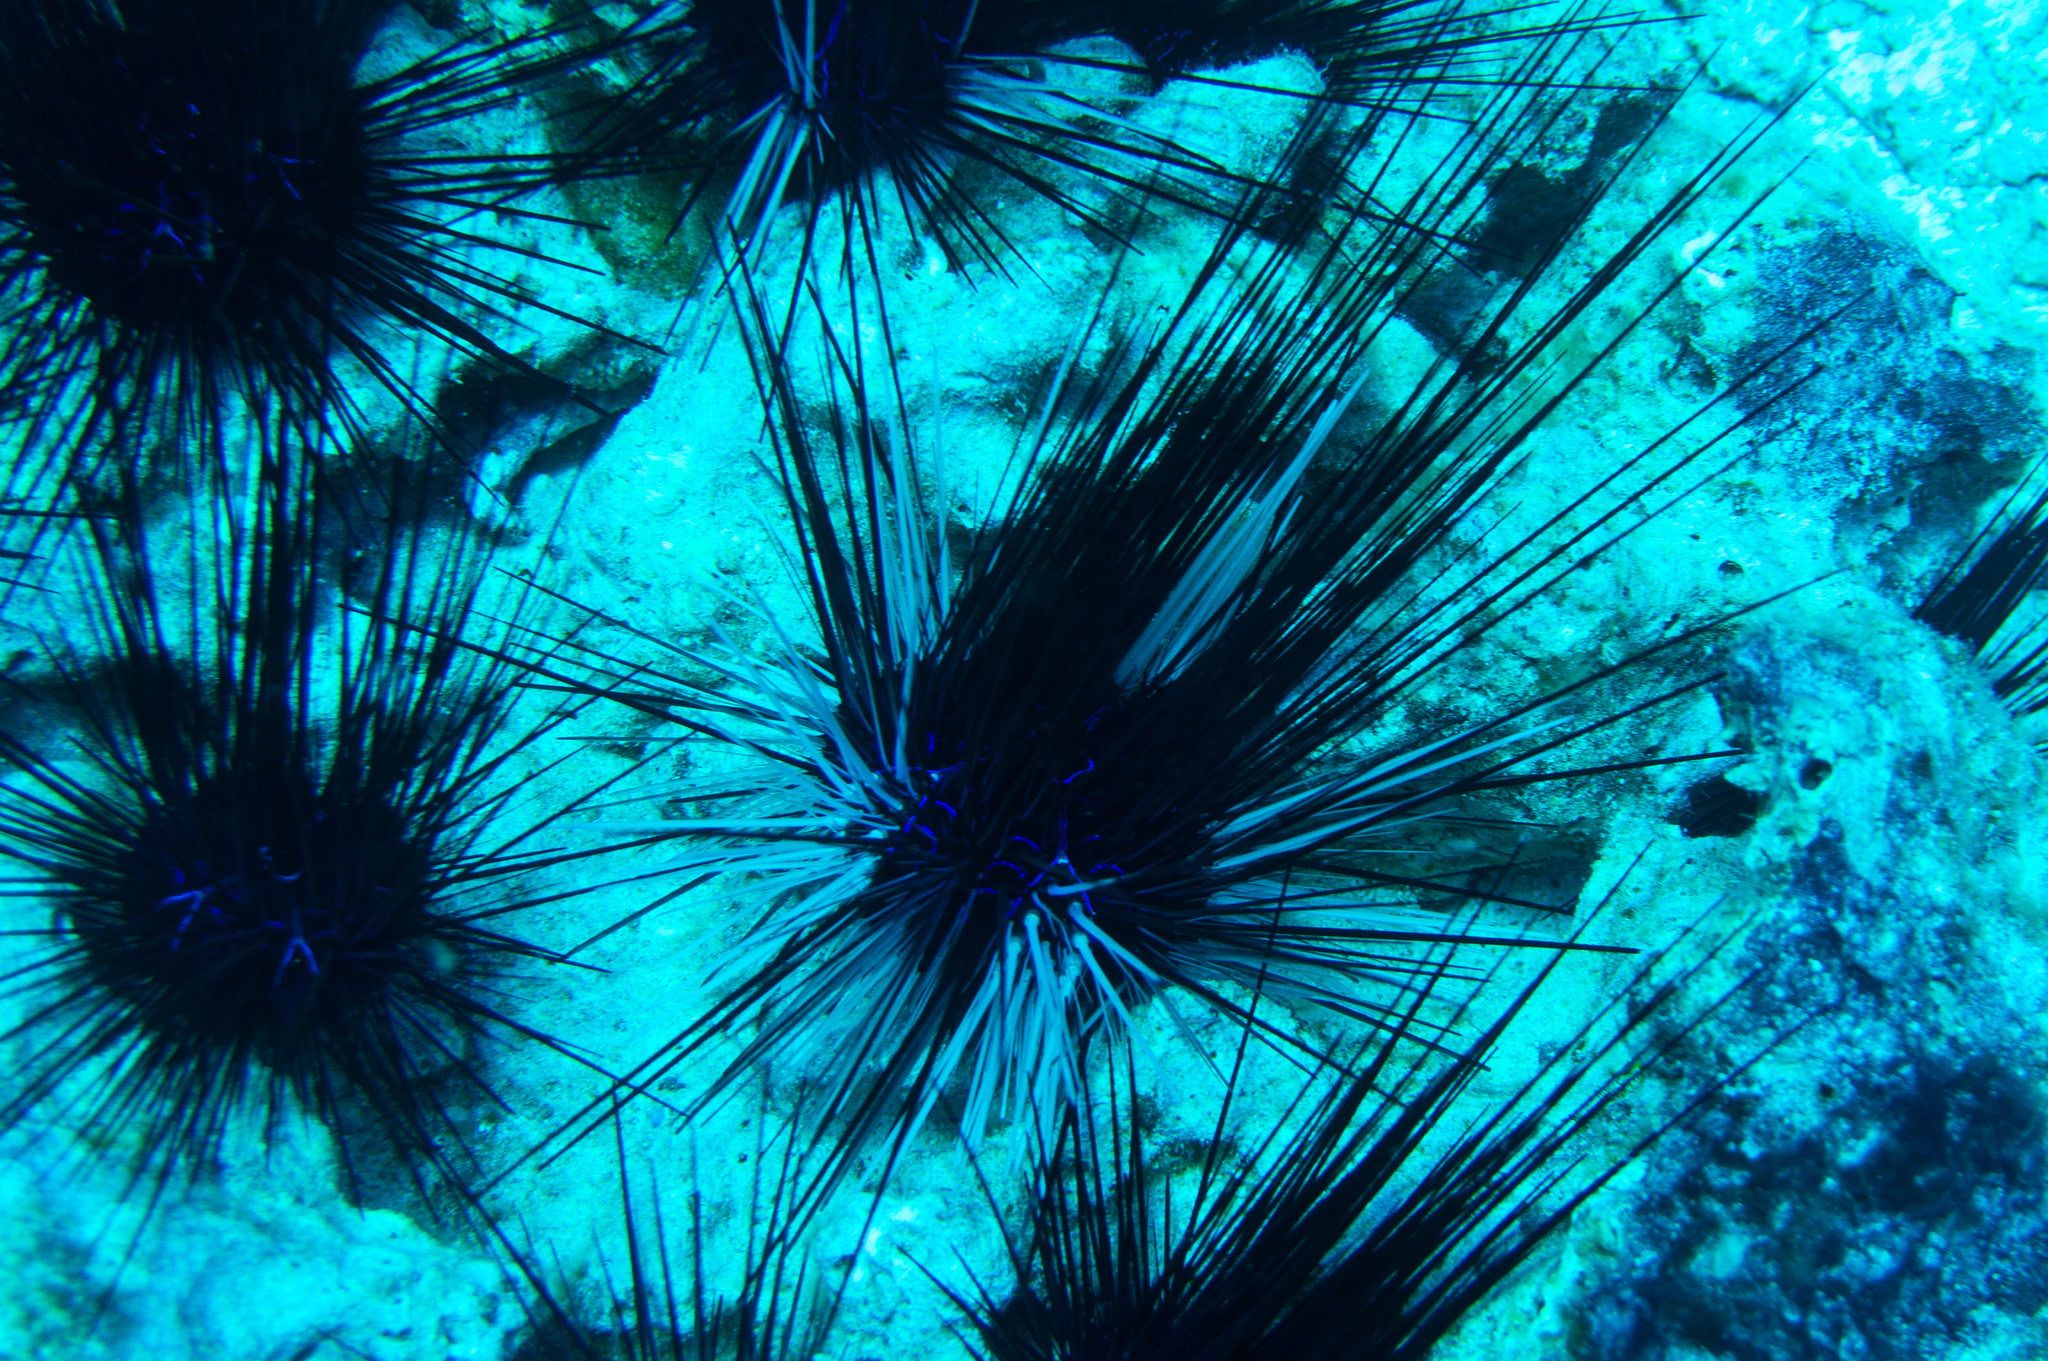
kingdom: Animalia
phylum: Echinodermata
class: Echinoidea
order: Diadematoida
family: Diadematidae
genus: Diadema
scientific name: Diadema savignyi
